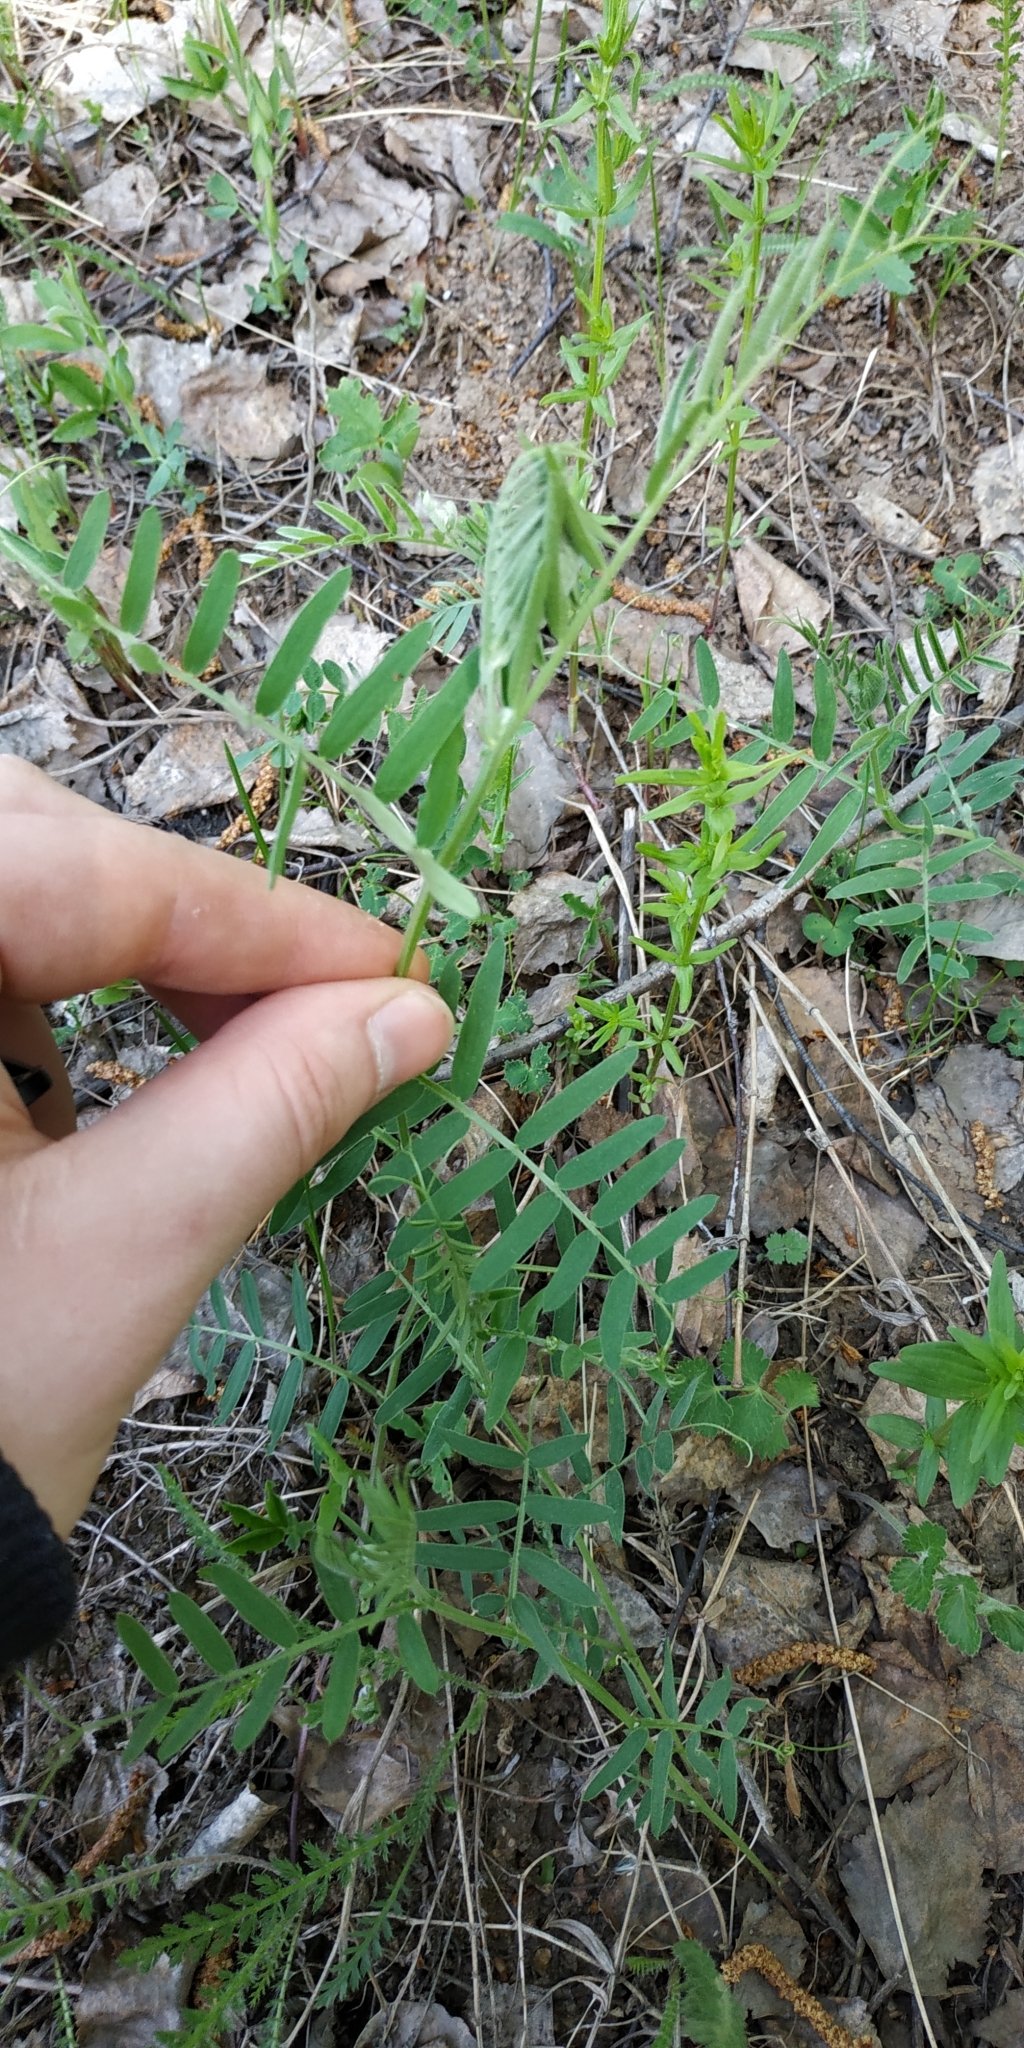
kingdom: Plantae
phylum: Tracheophyta
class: Magnoliopsida
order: Fabales
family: Fabaceae
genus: Vicia
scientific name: Vicia cracca
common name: Bird vetch
